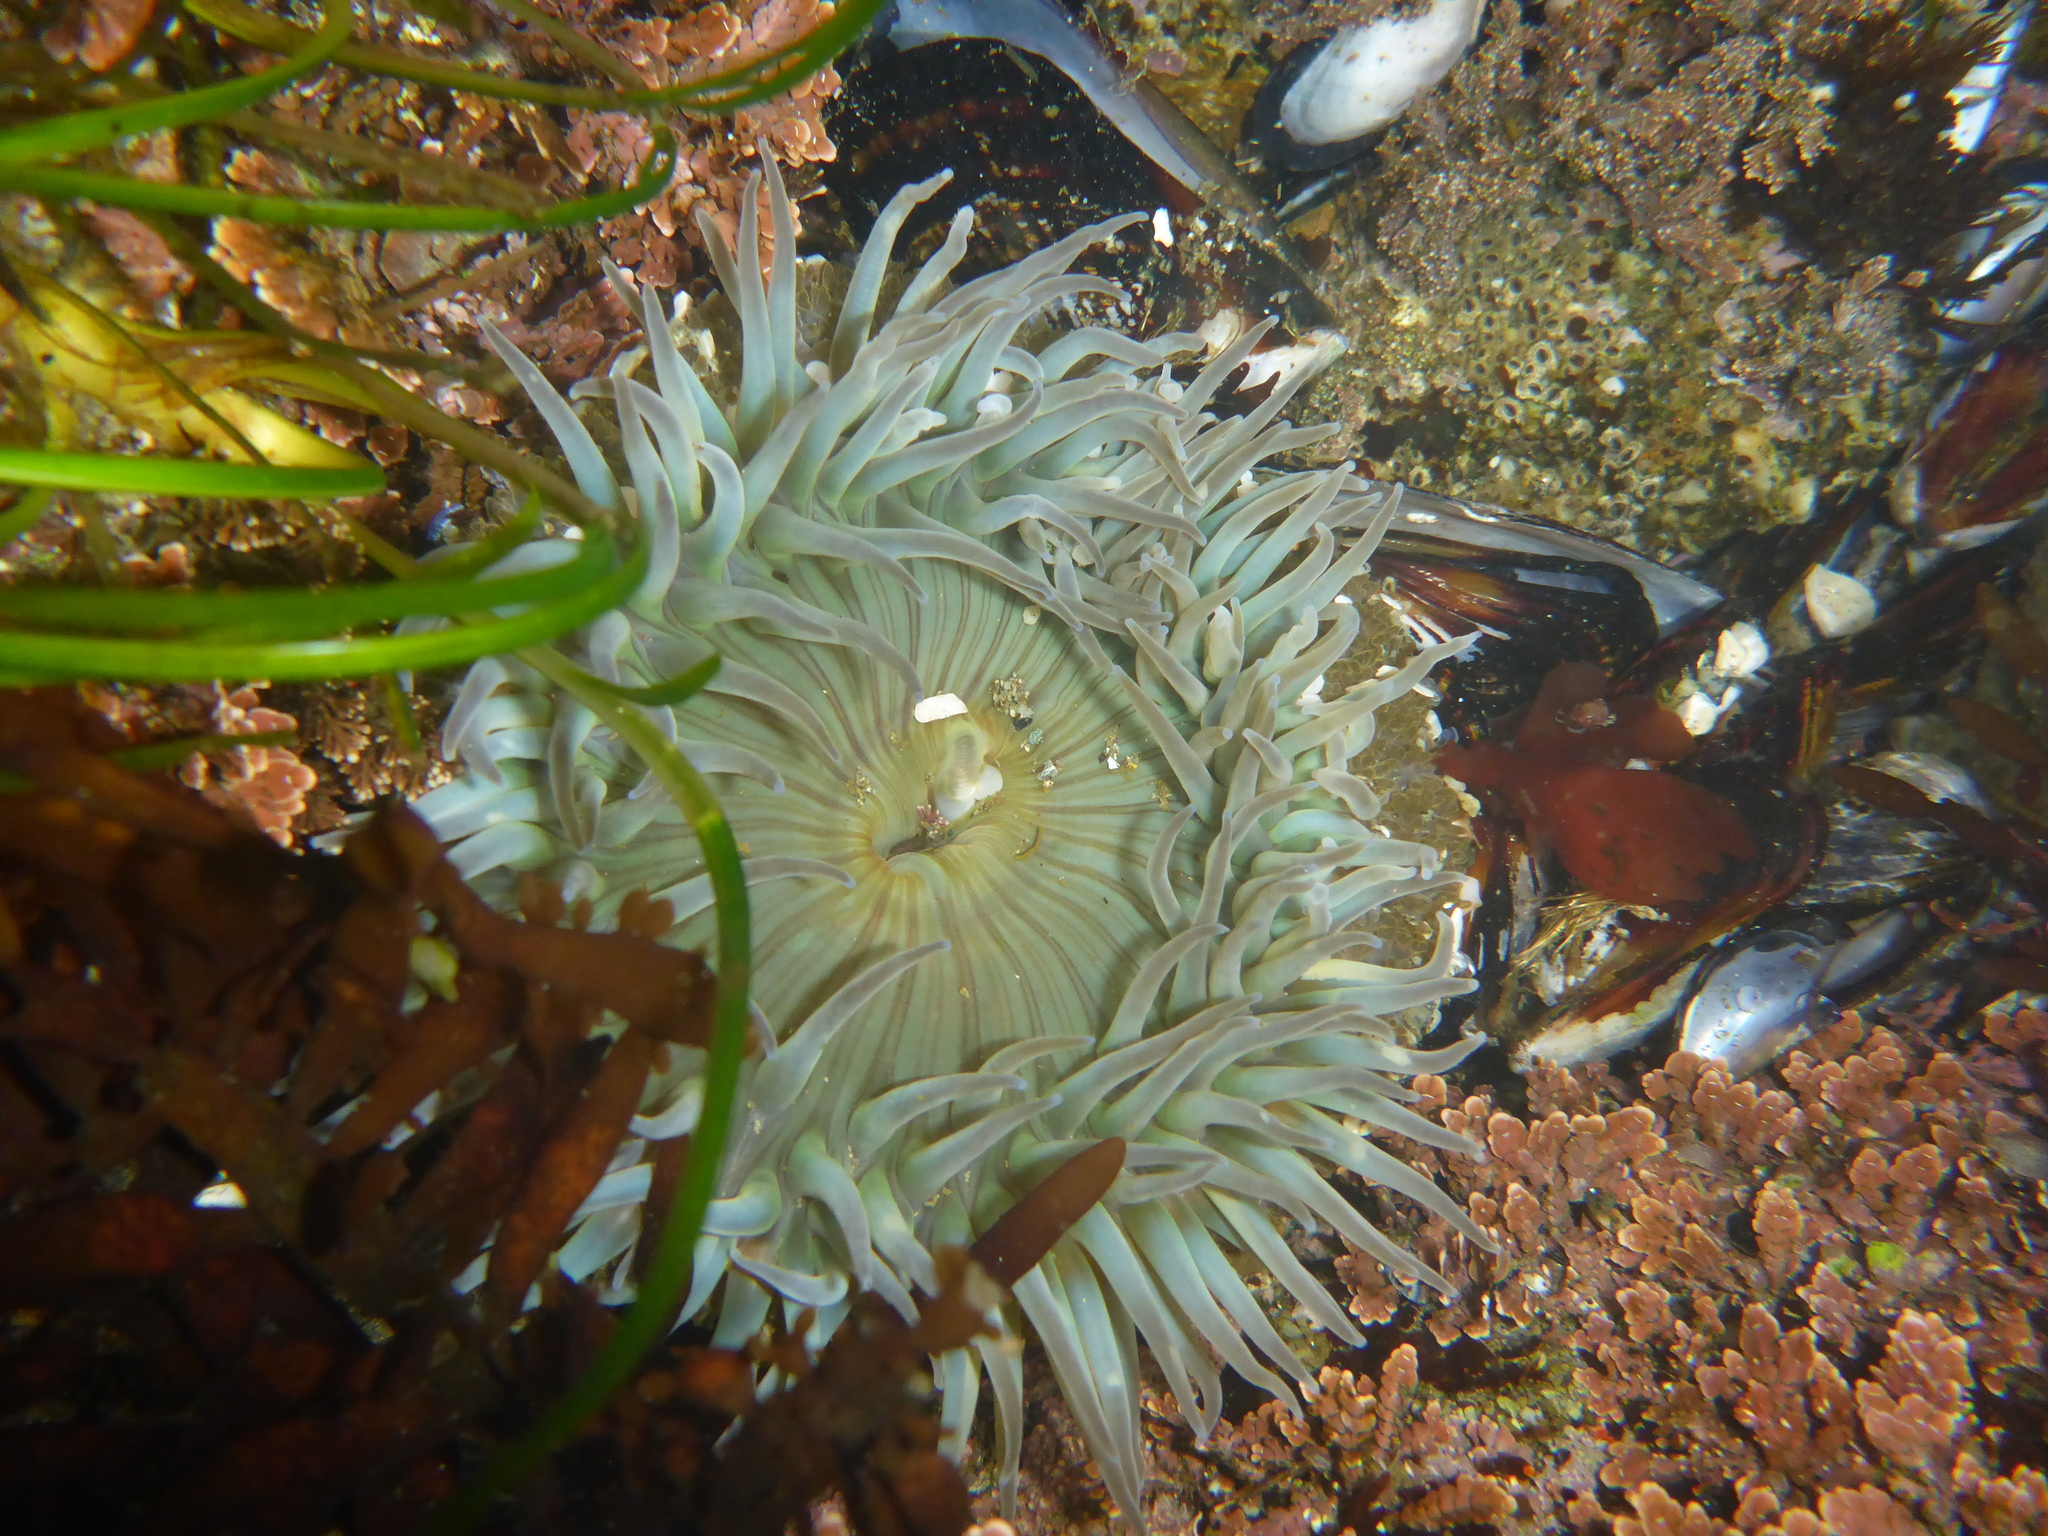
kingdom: Animalia
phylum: Cnidaria
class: Anthozoa
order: Actiniaria
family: Actiniidae
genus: Anthopleura
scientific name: Anthopleura sola
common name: Sun anemone
